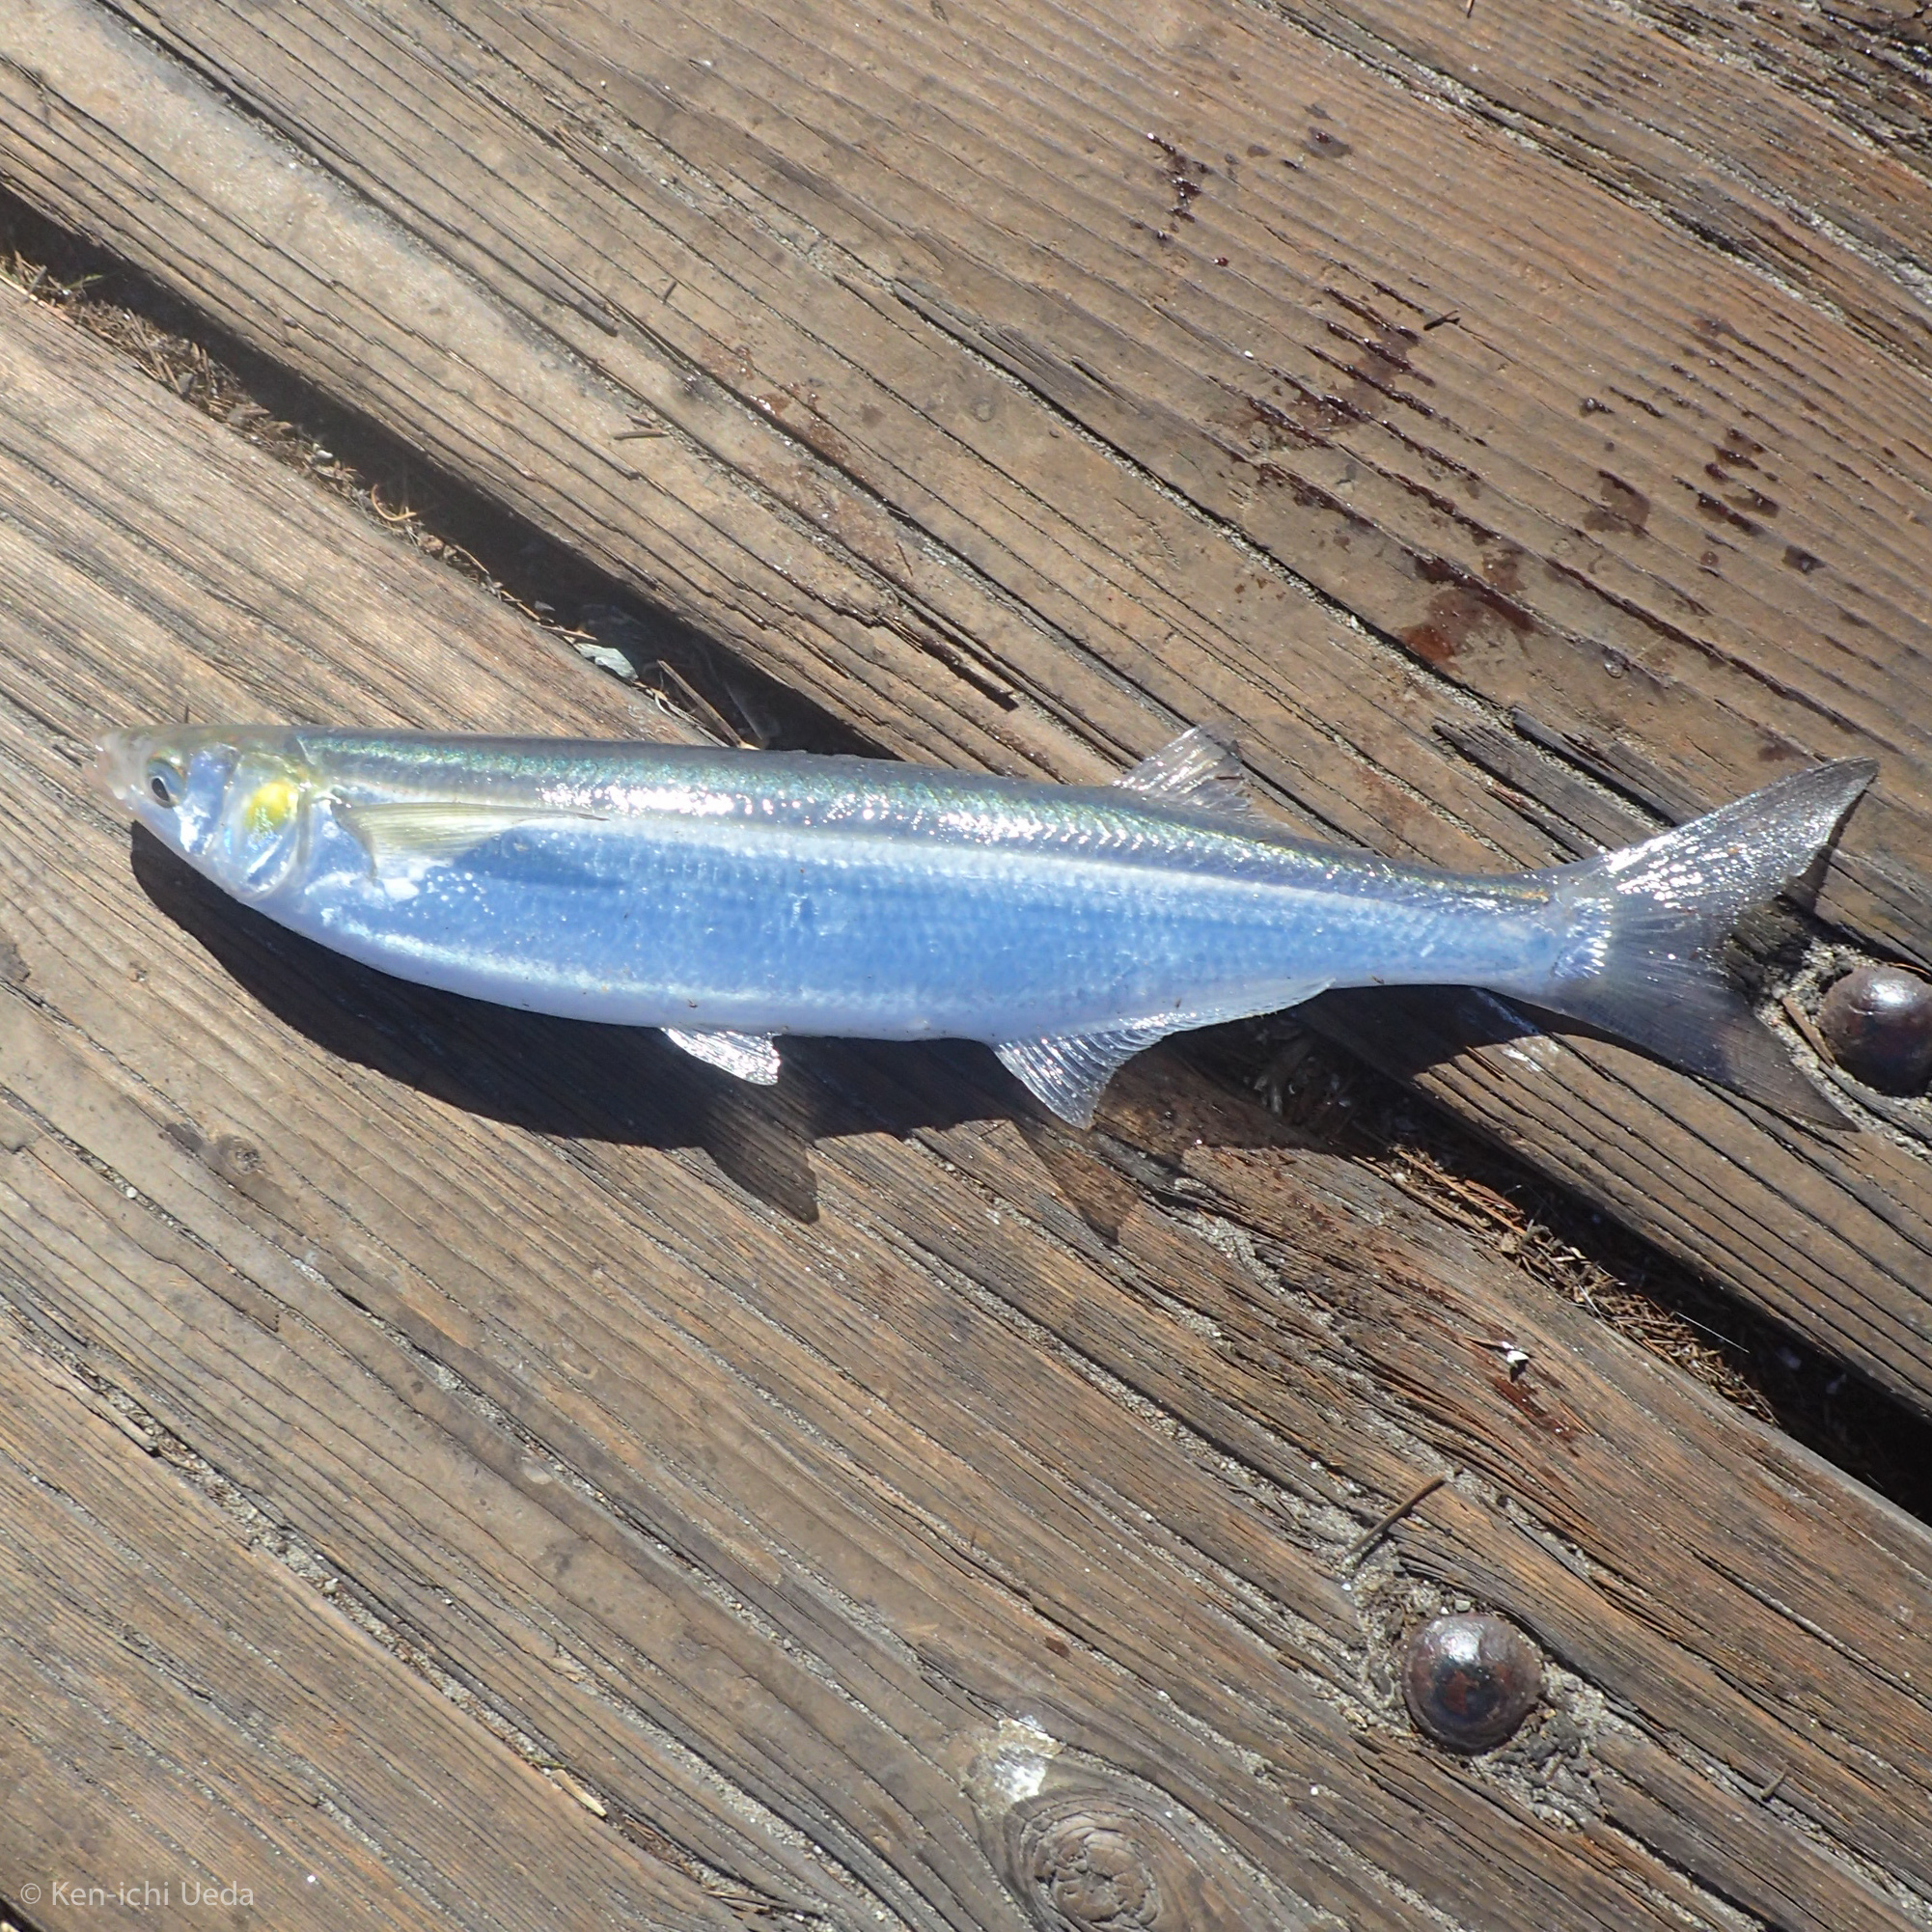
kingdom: Animalia
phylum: Chordata
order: Atheriniformes
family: Atherinopsidae
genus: Atherinopsis
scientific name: Atherinopsis californiensis
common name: Jack silverside
